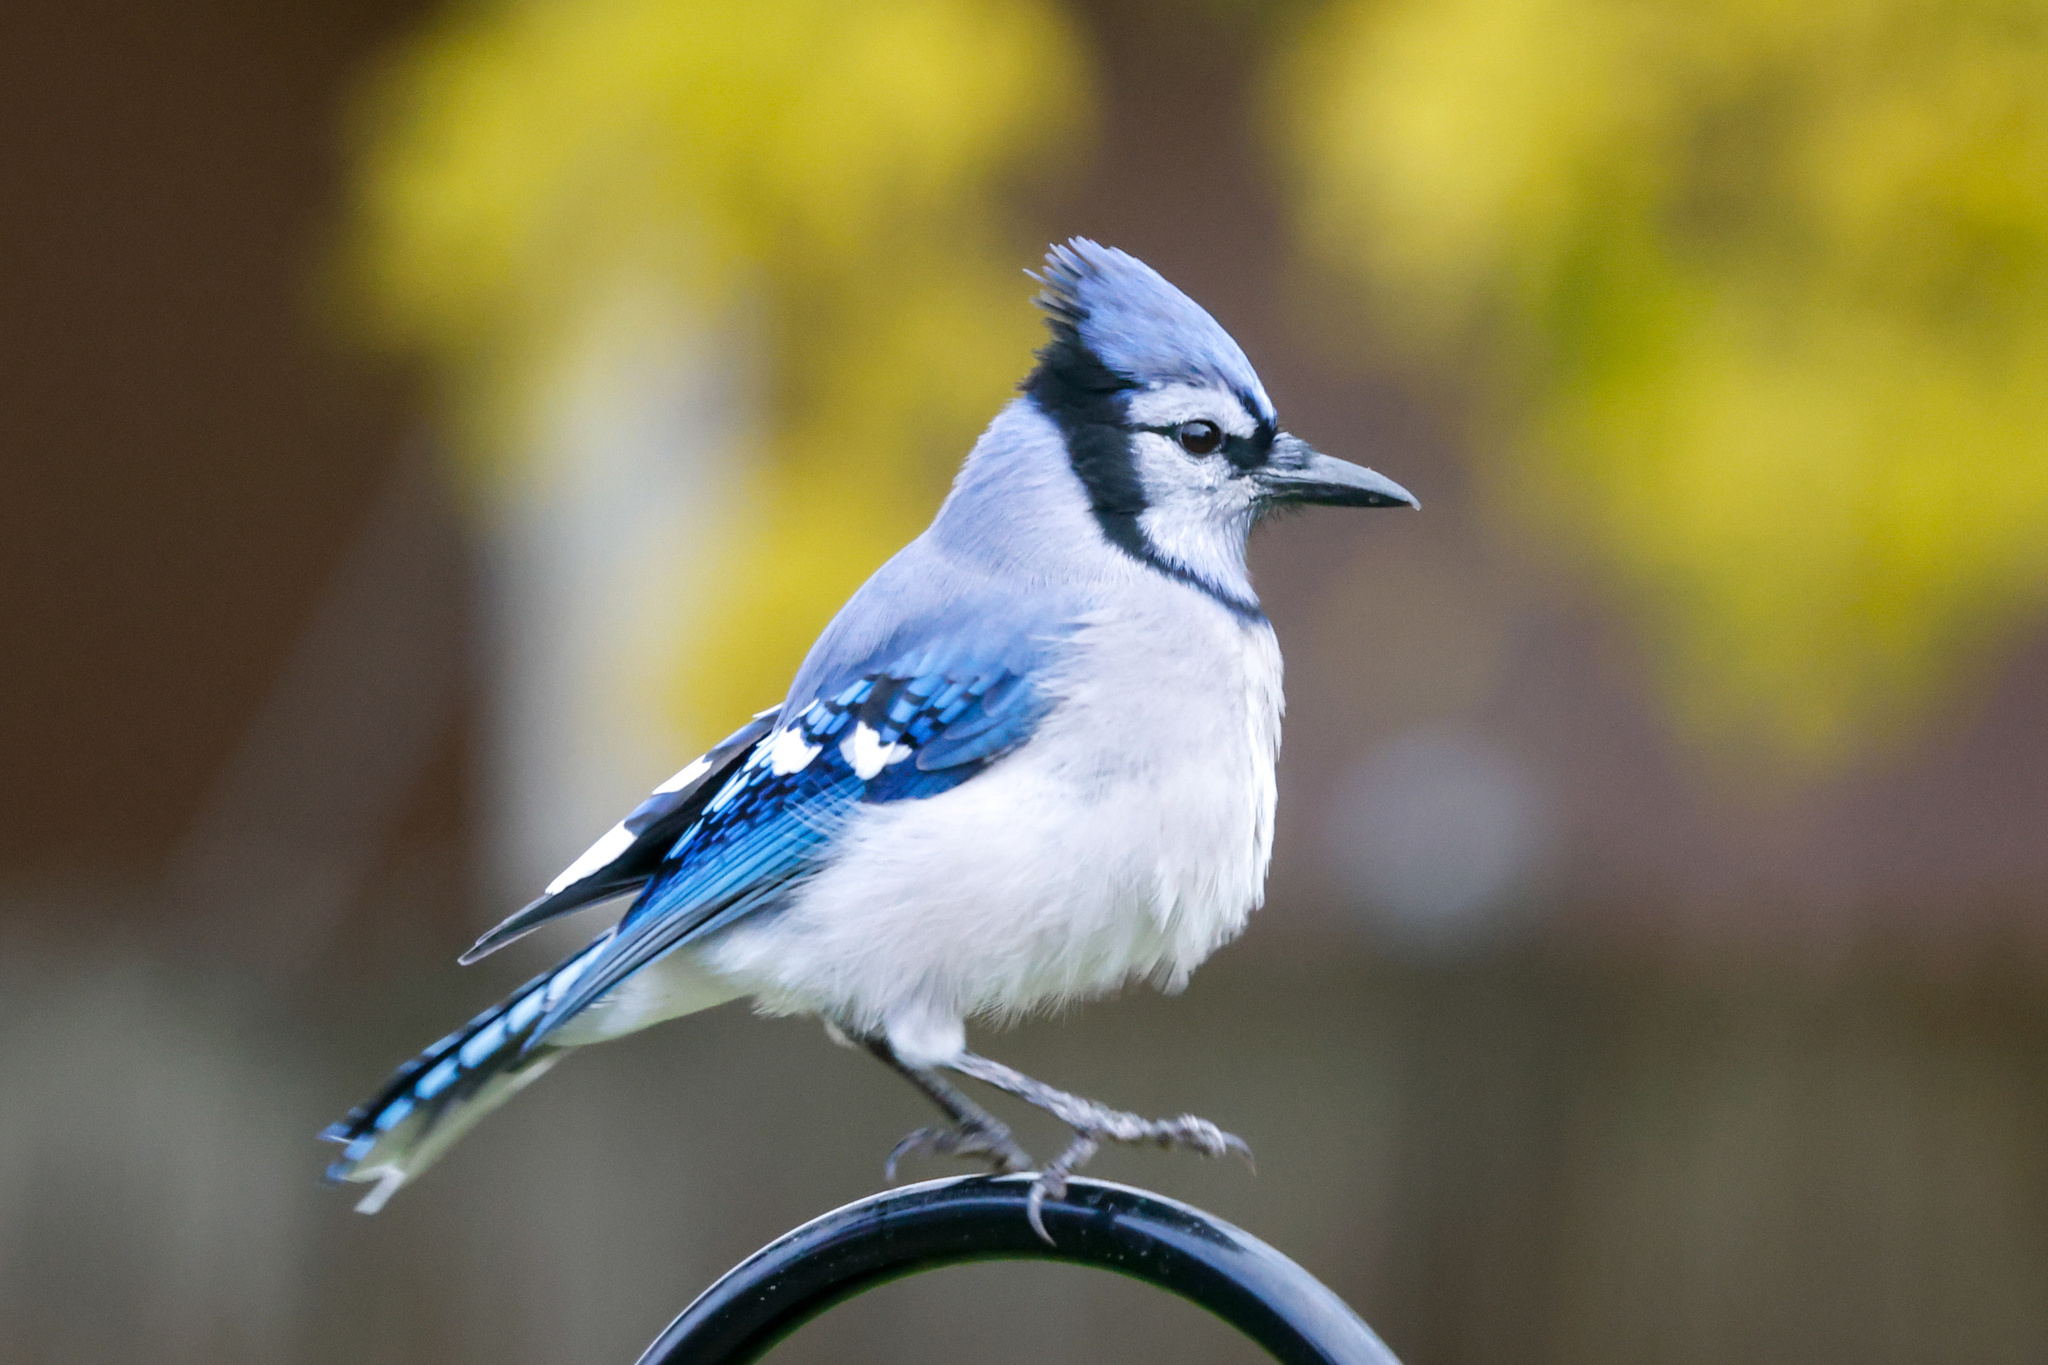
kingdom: Animalia
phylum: Chordata
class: Aves
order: Passeriformes
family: Corvidae
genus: Cyanocitta
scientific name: Cyanocitta cristata
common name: Blue jay
